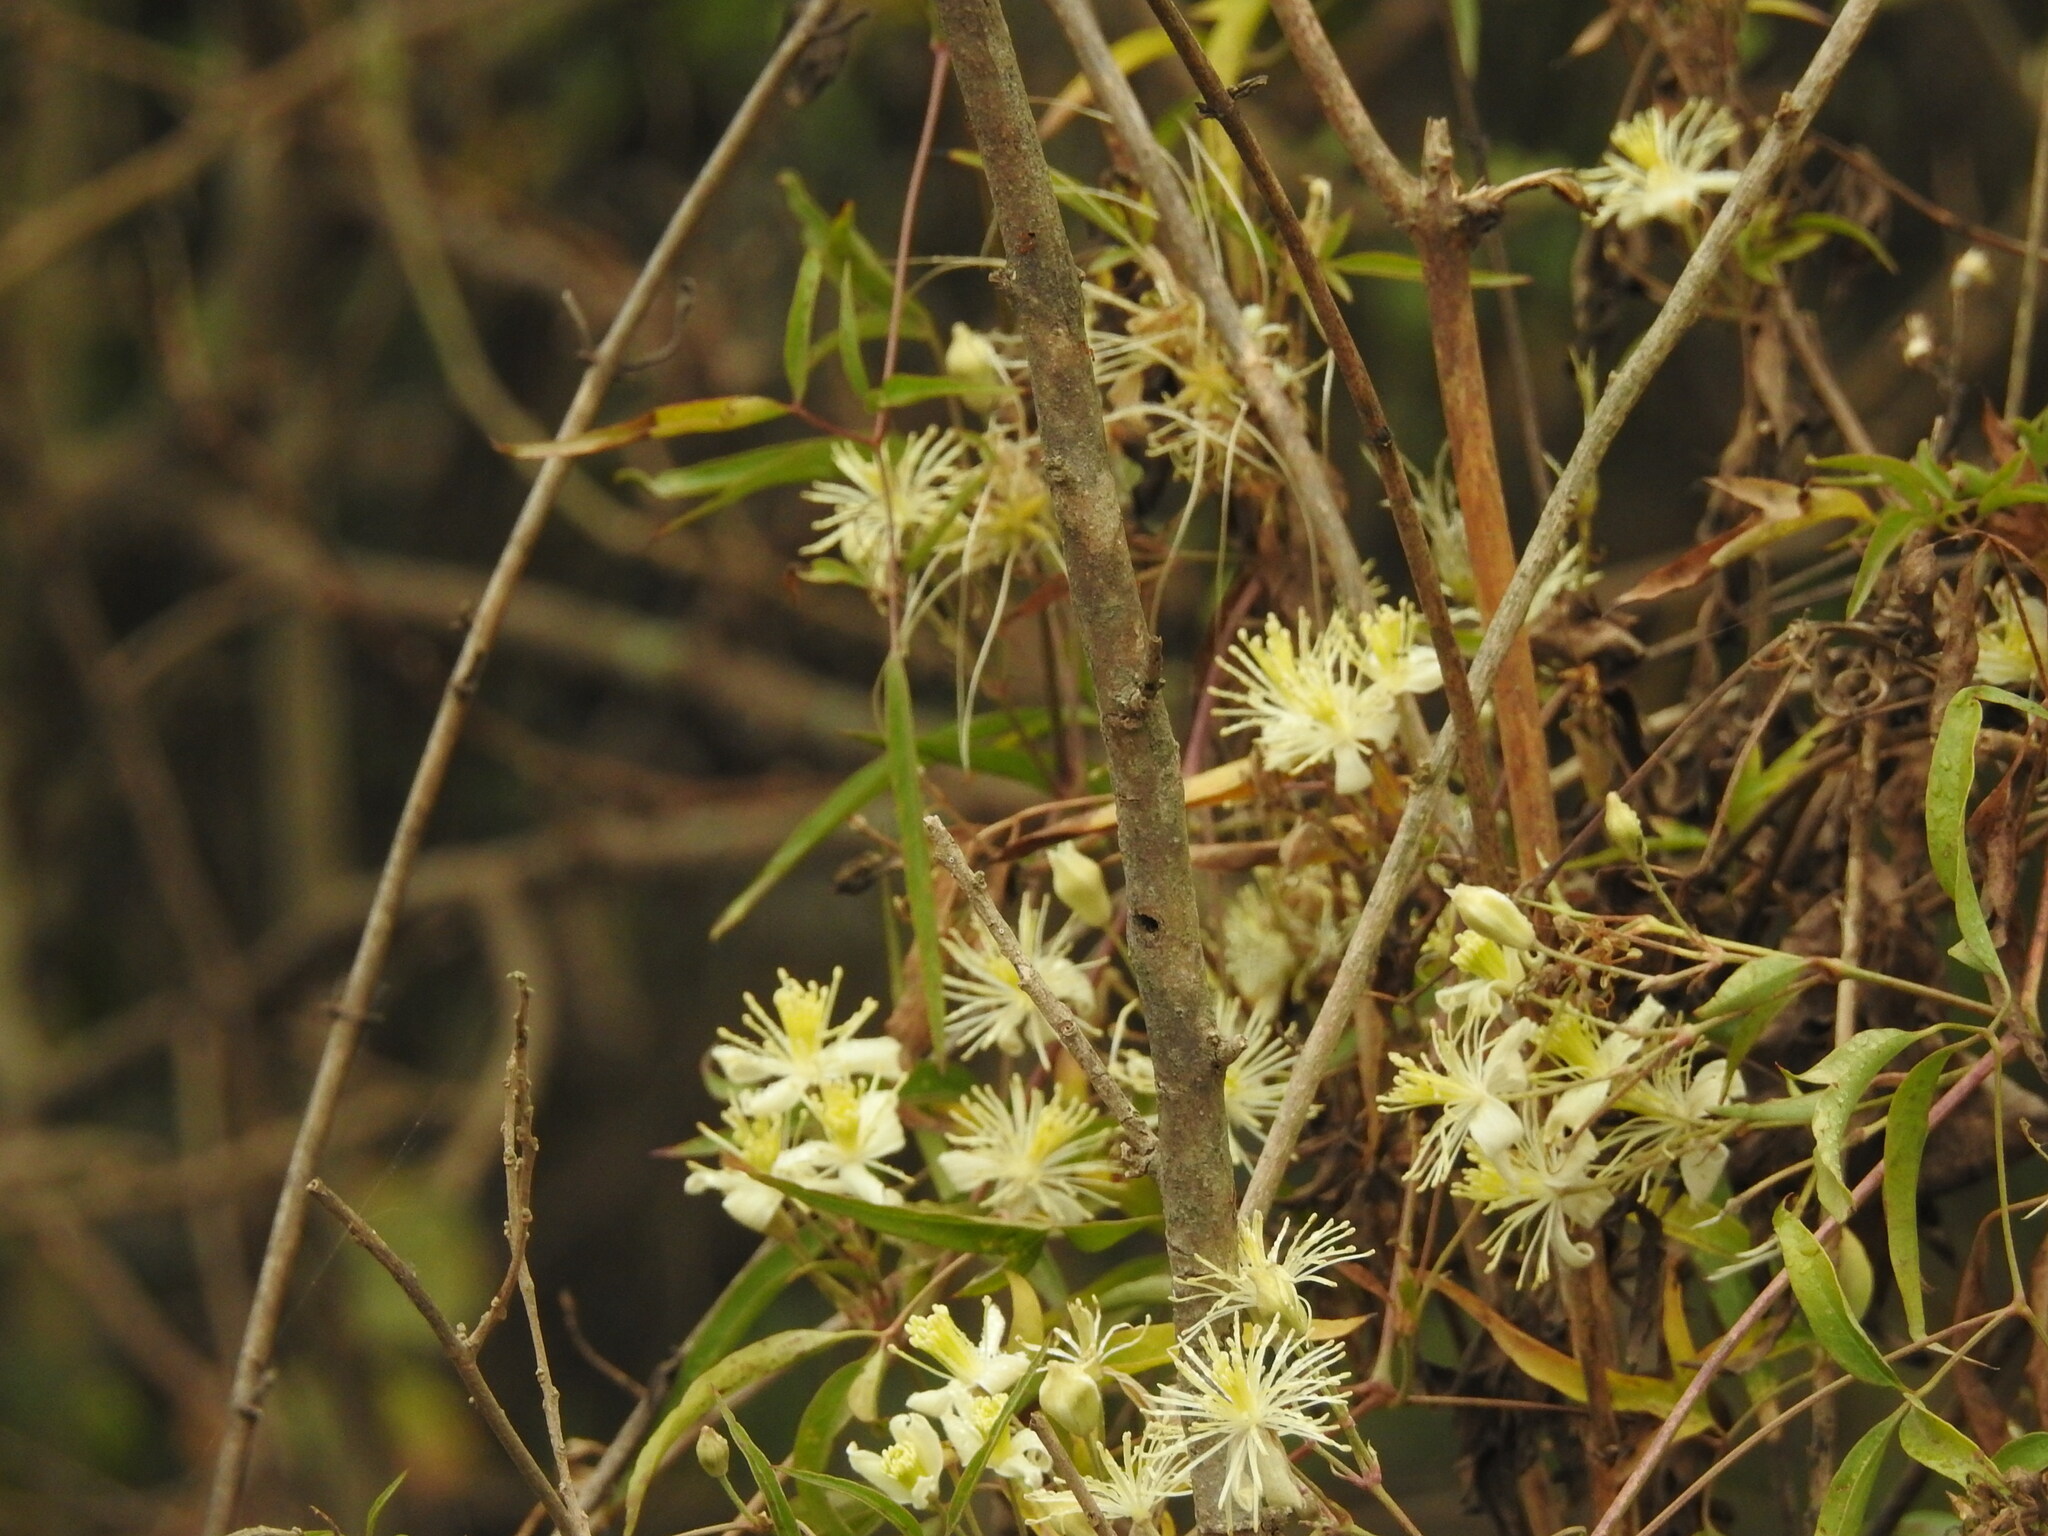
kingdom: Plantae
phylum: Tracheophyta
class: Magnoliopsida
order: Ranunculales
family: Ranunculaceae
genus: Clematis
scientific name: Clematis montevidensis
